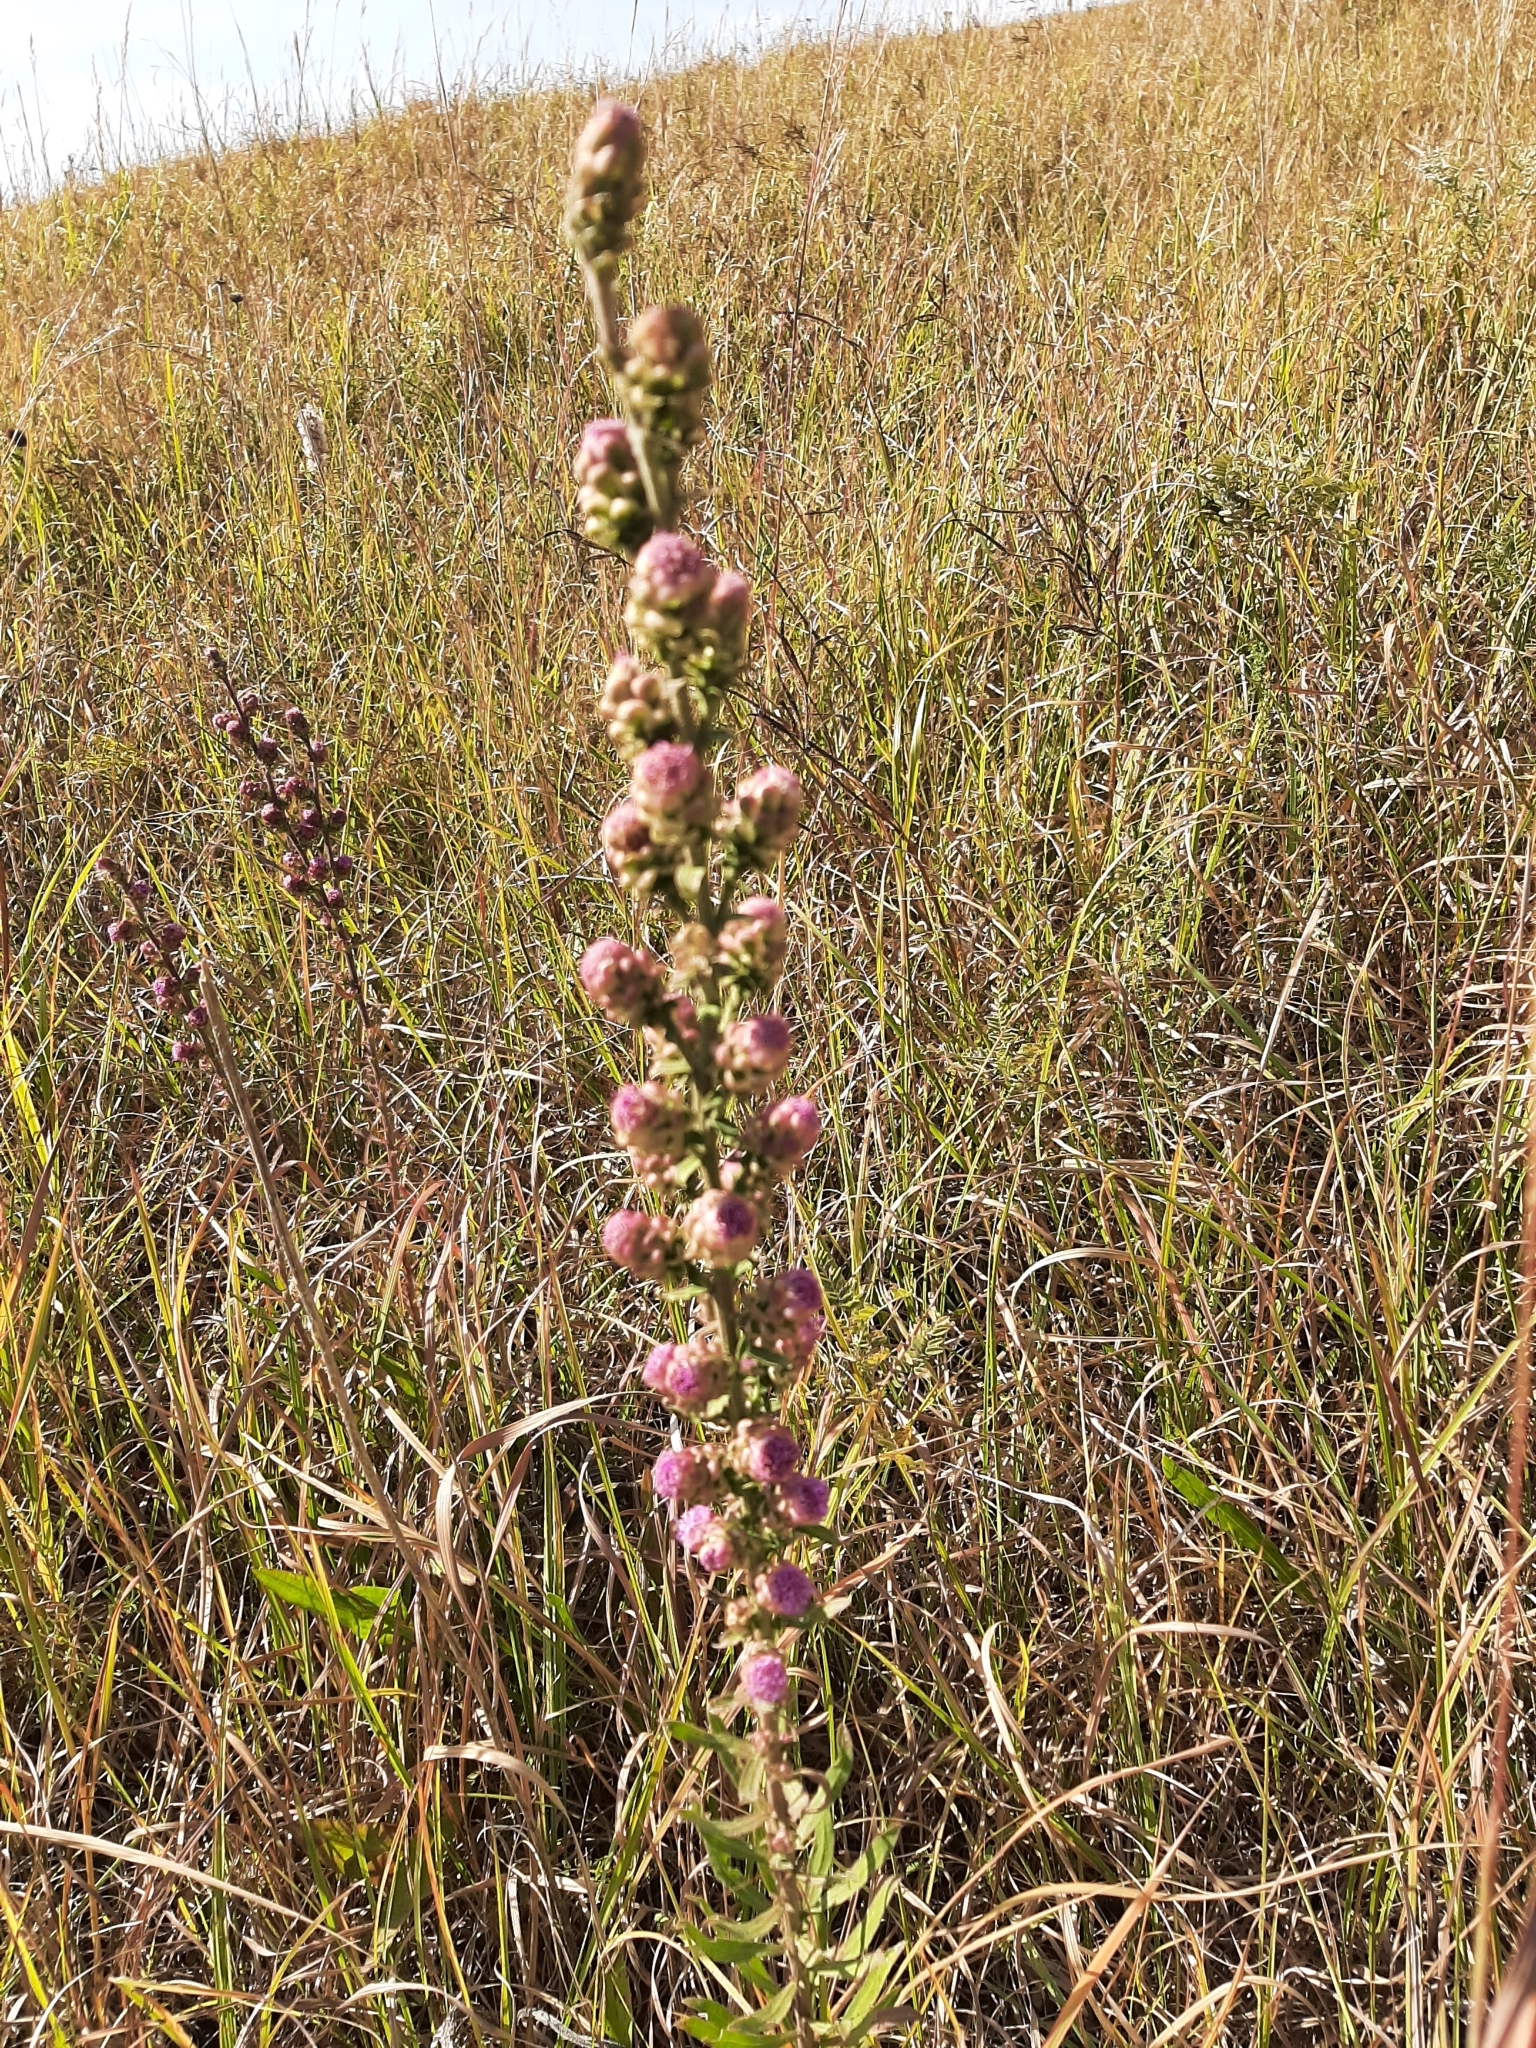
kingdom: Plantae
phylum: Tracheophyta
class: Magnoliopsida
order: Asterales
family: Asteraceae
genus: Liatris
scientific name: Liatris aspera
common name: Lacerate blazing-star
